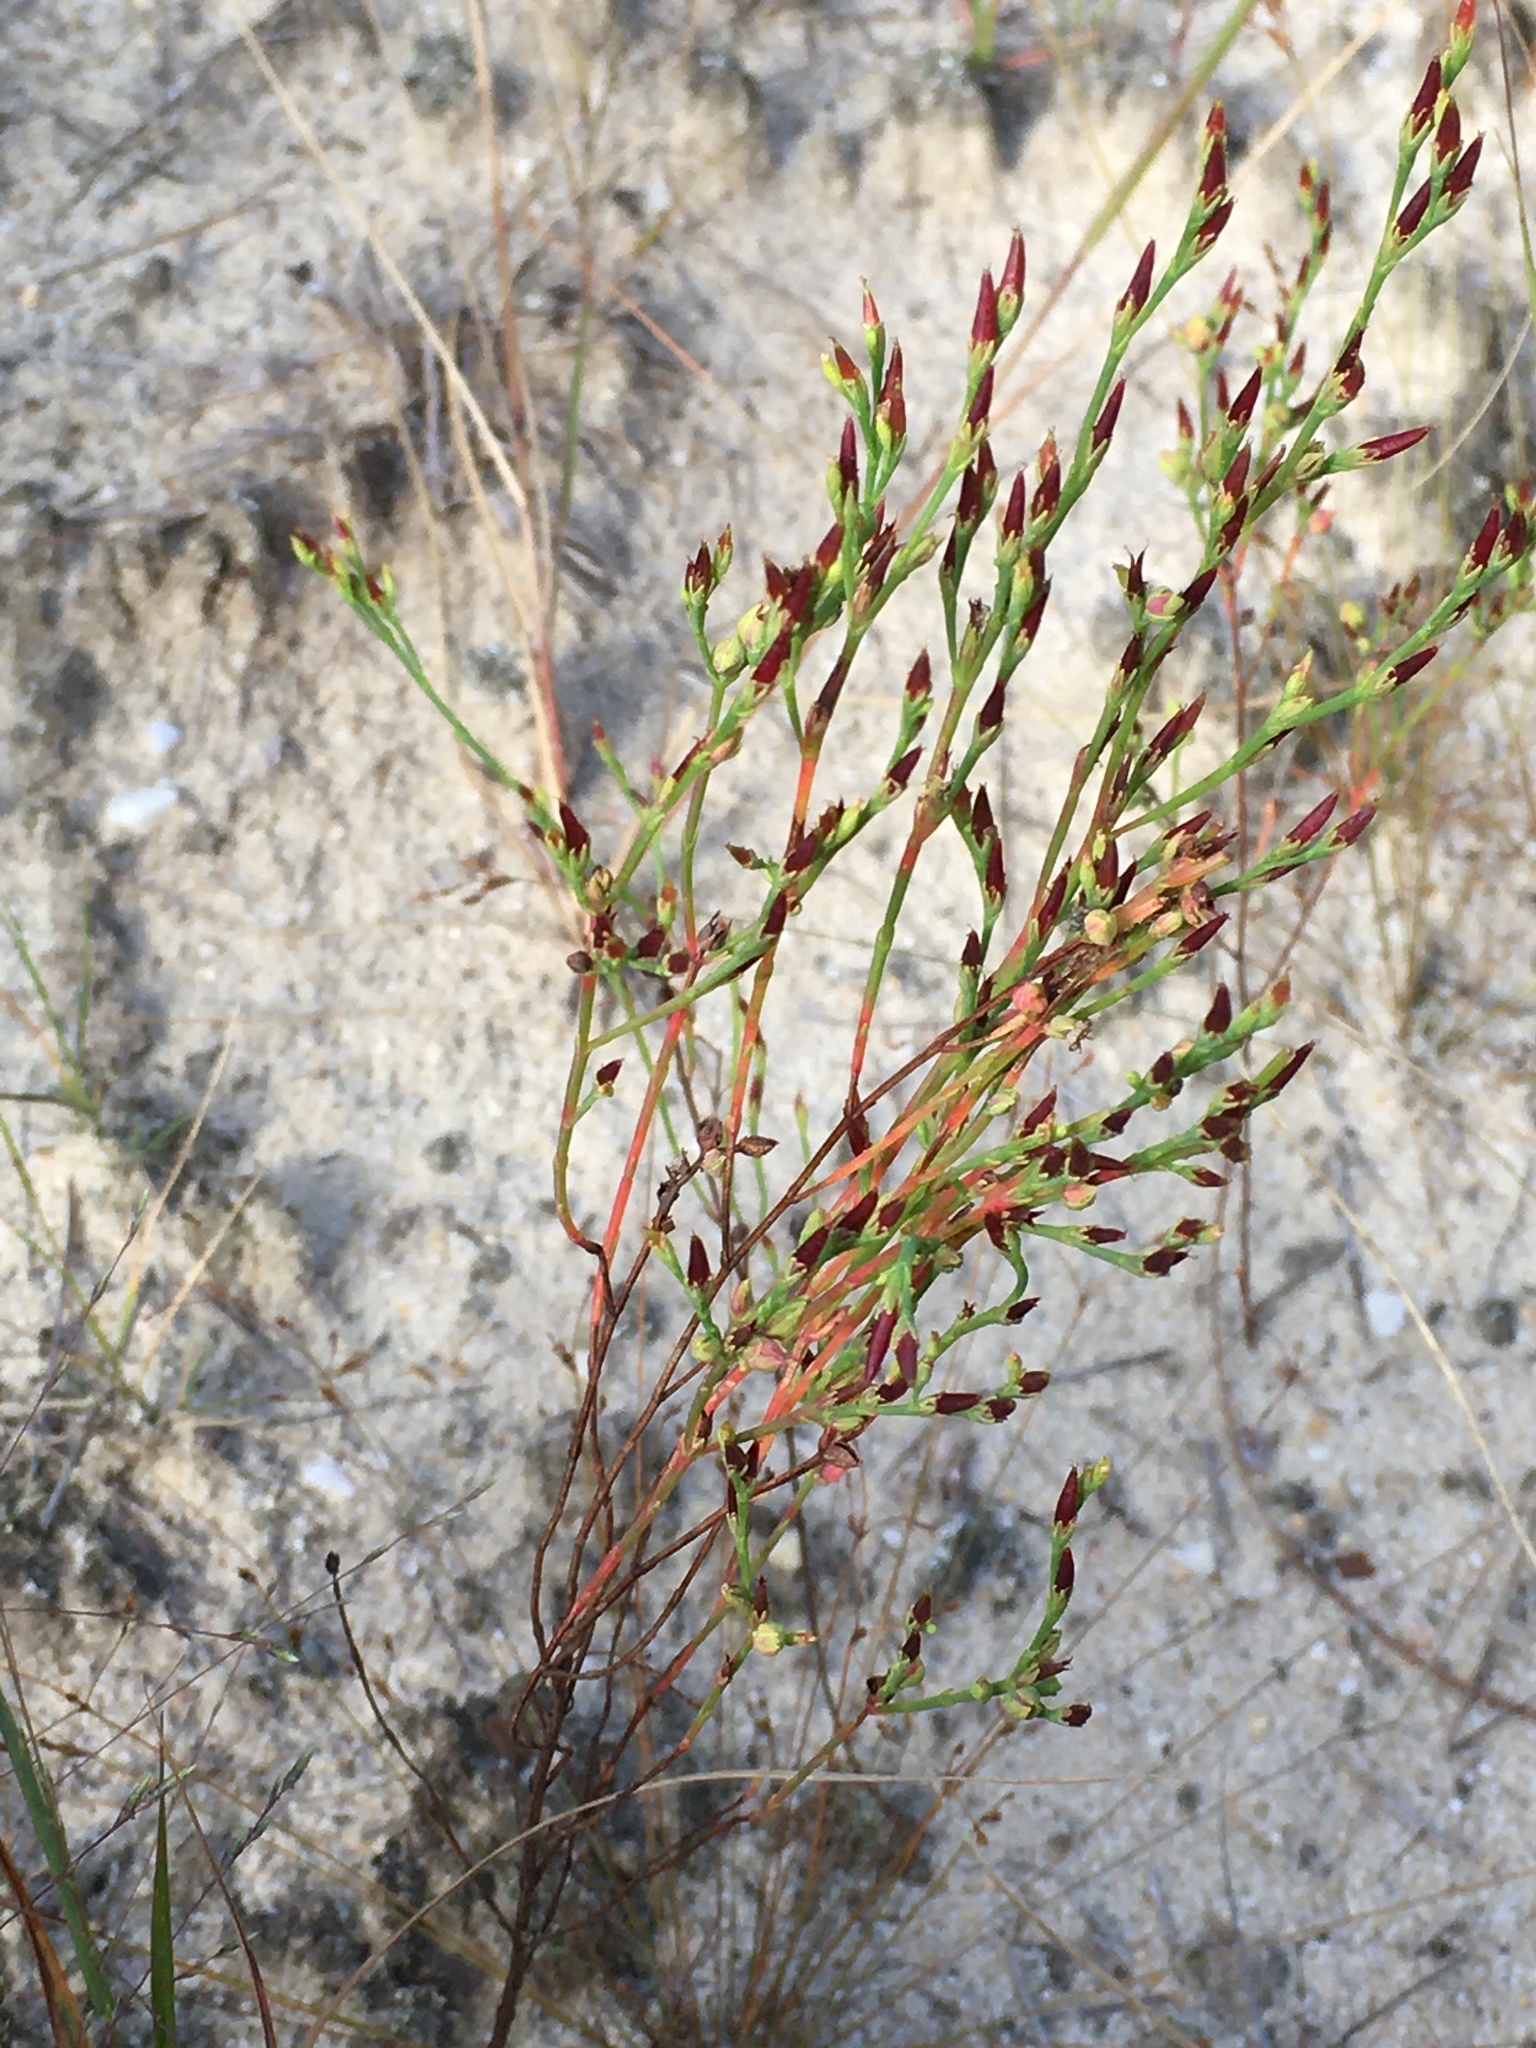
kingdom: Plantae
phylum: Tracheophyta
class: Magnoliopsida
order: Malpighiales
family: Hypericaceae
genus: Hypericum
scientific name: Hypericum gentianoides
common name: Gentian-leaved st. john's-wort
